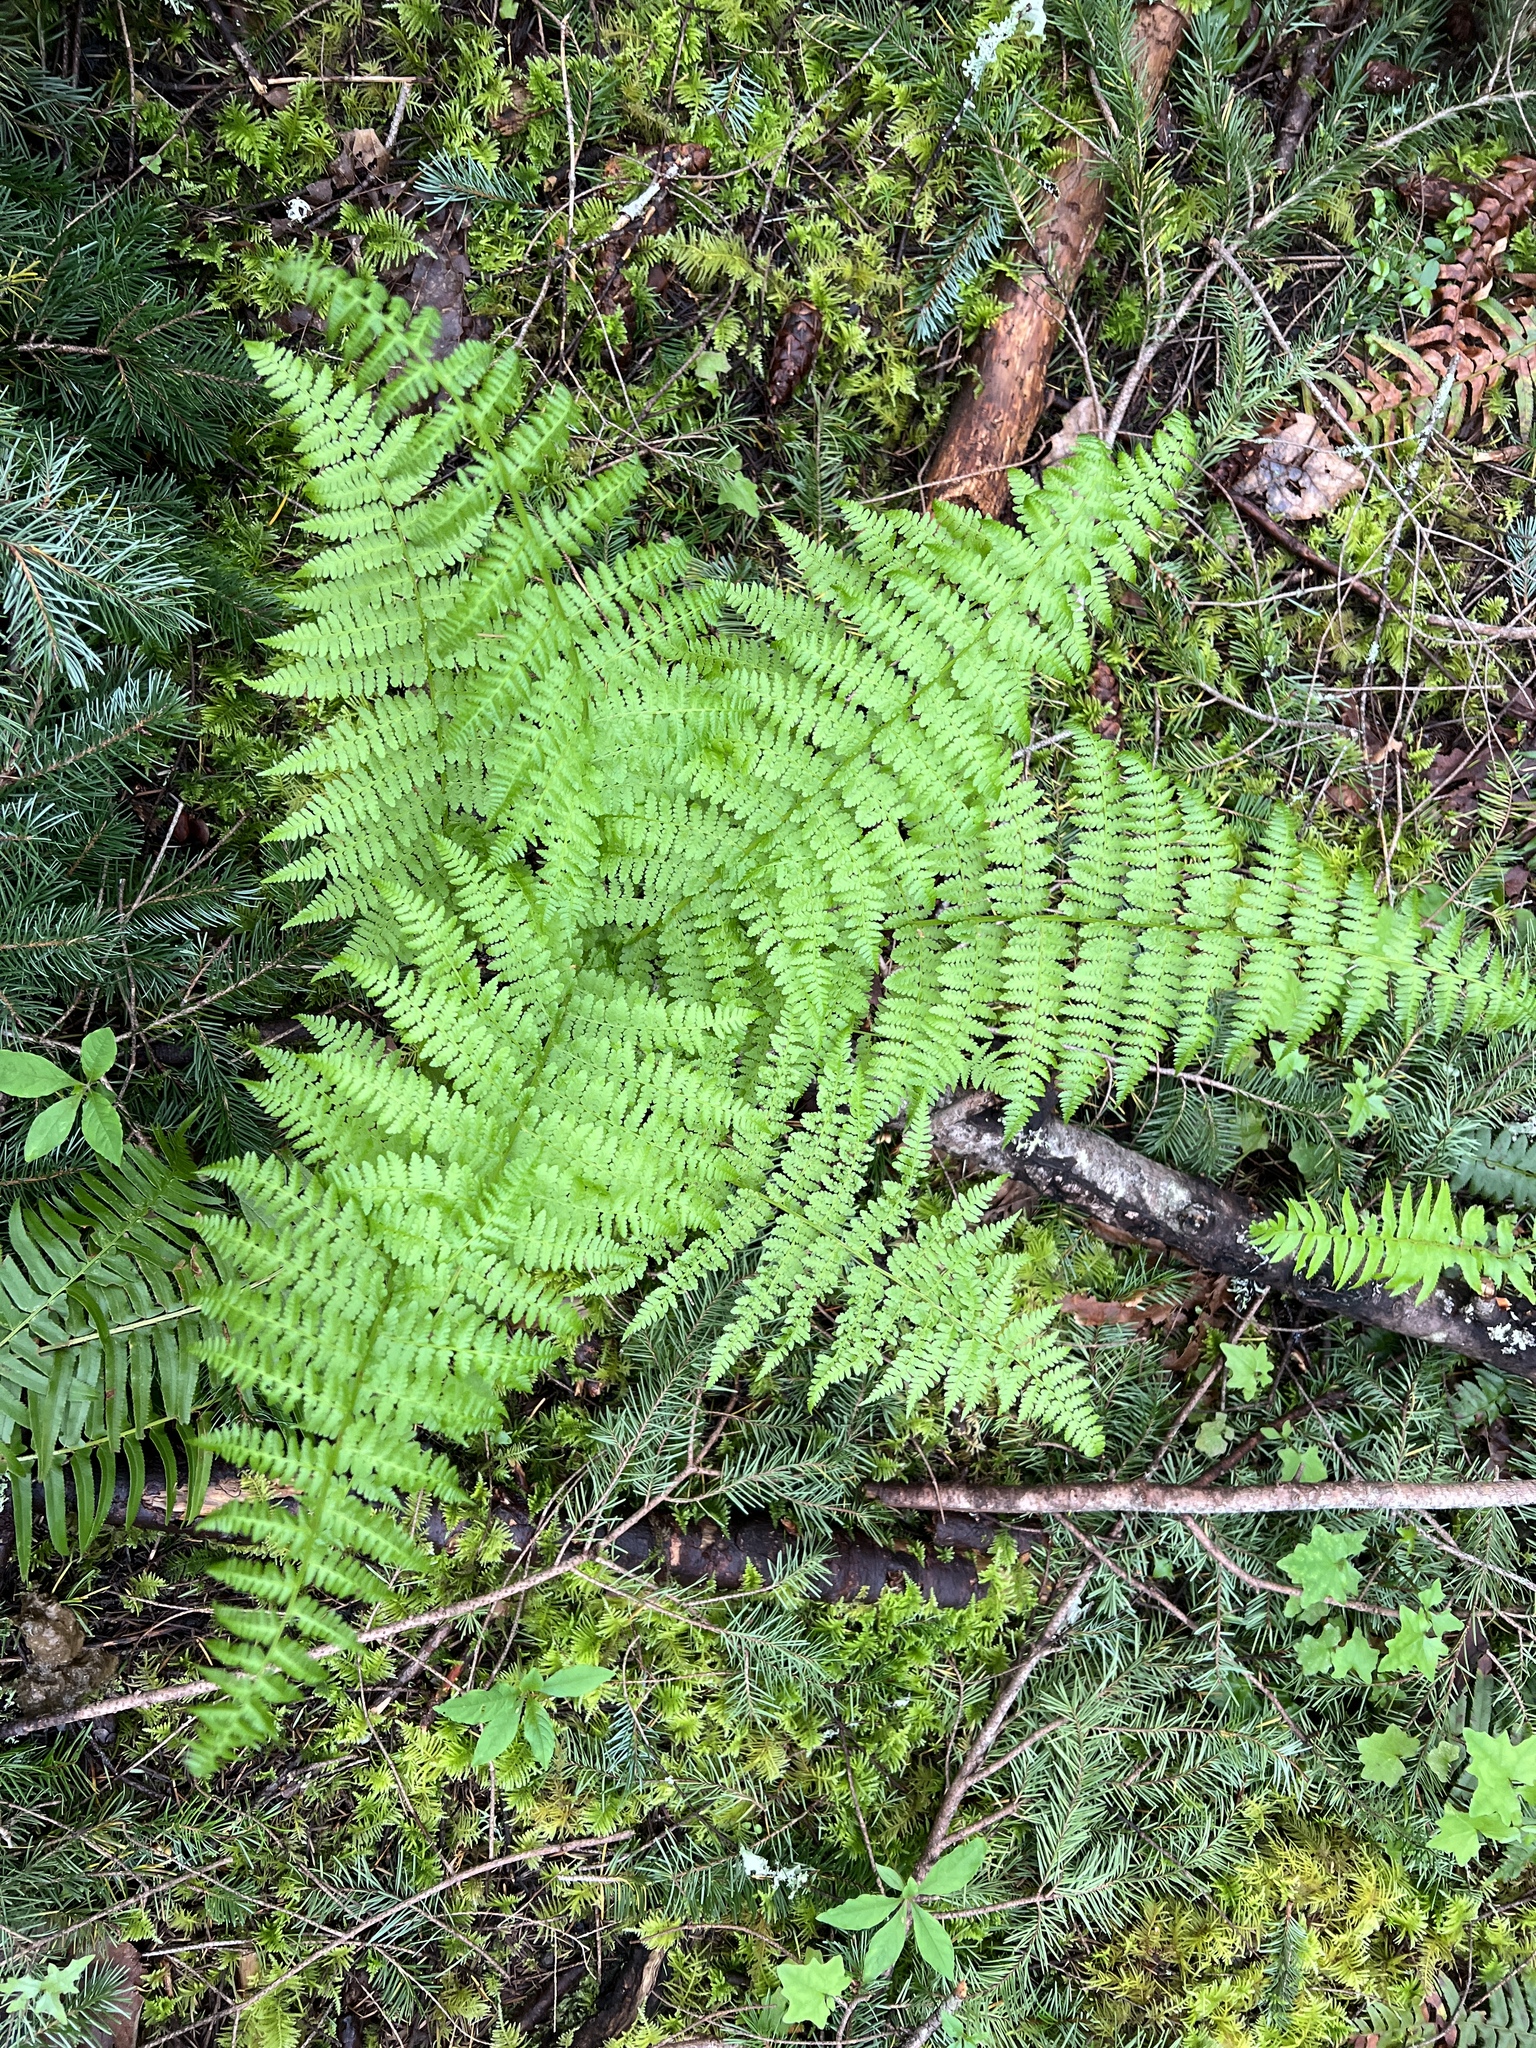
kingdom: Plantae
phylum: Tracheophyta
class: Polypodiopsida
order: Polypodiales
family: Athyriaceae
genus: Athyrium
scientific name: Athyrium filix-femina
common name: Lady fern
